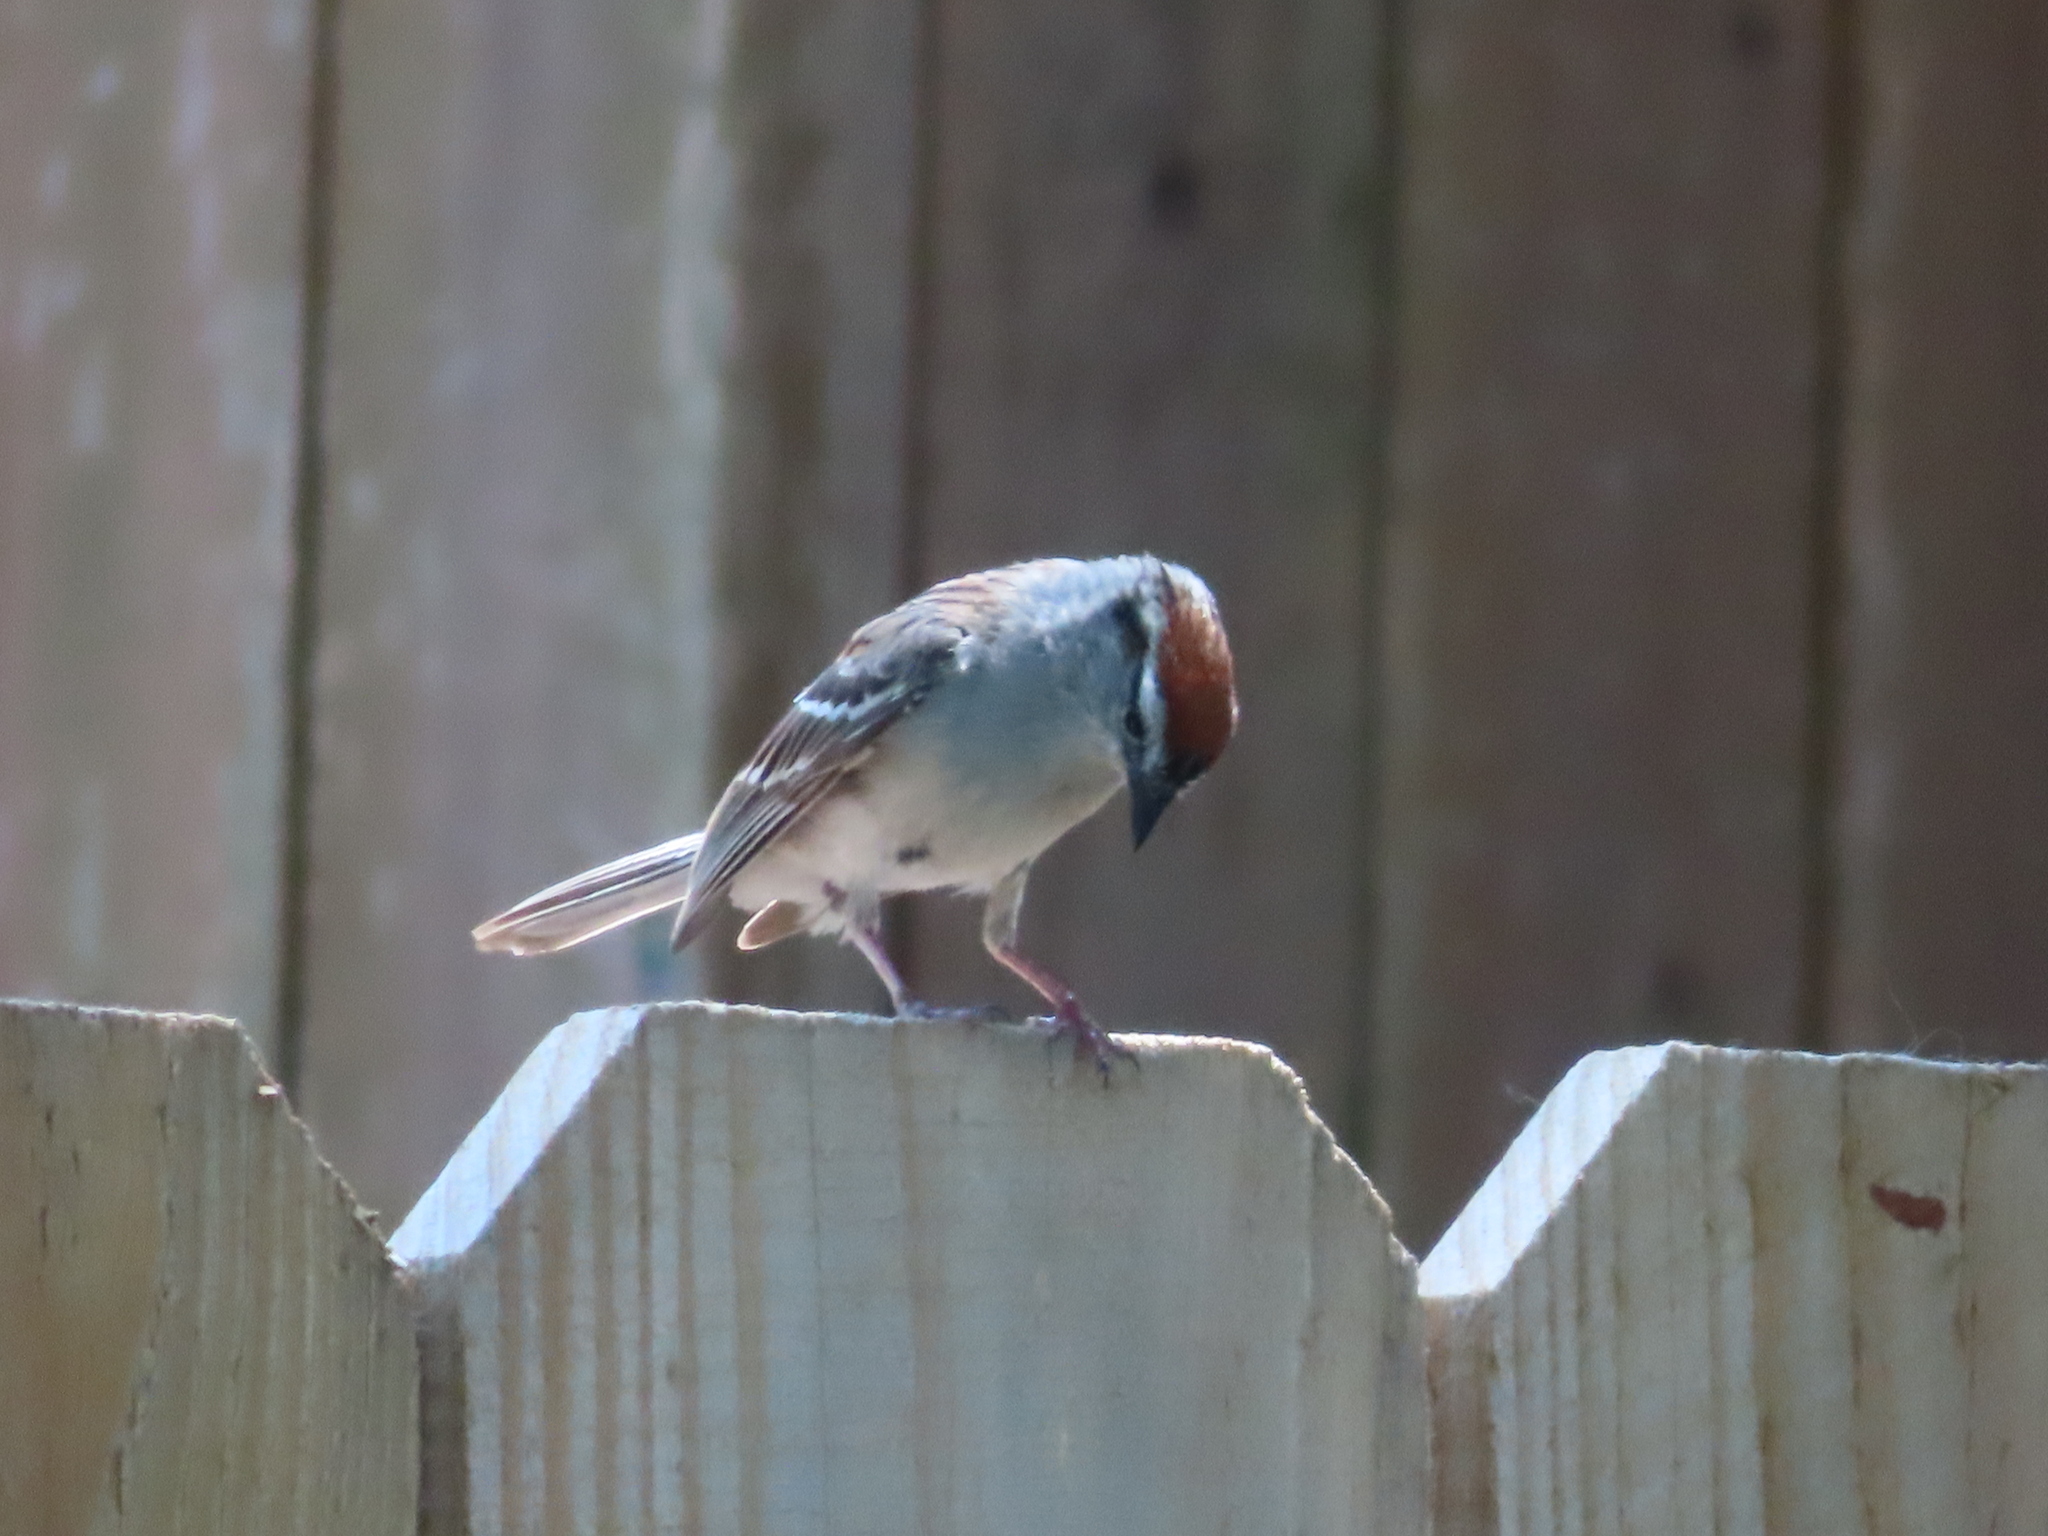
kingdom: Animalia
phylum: Chordata
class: Aves
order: Passeriformes
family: Passerellidae
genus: Spizella
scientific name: Spizella passerina
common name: Chipping sparrow
